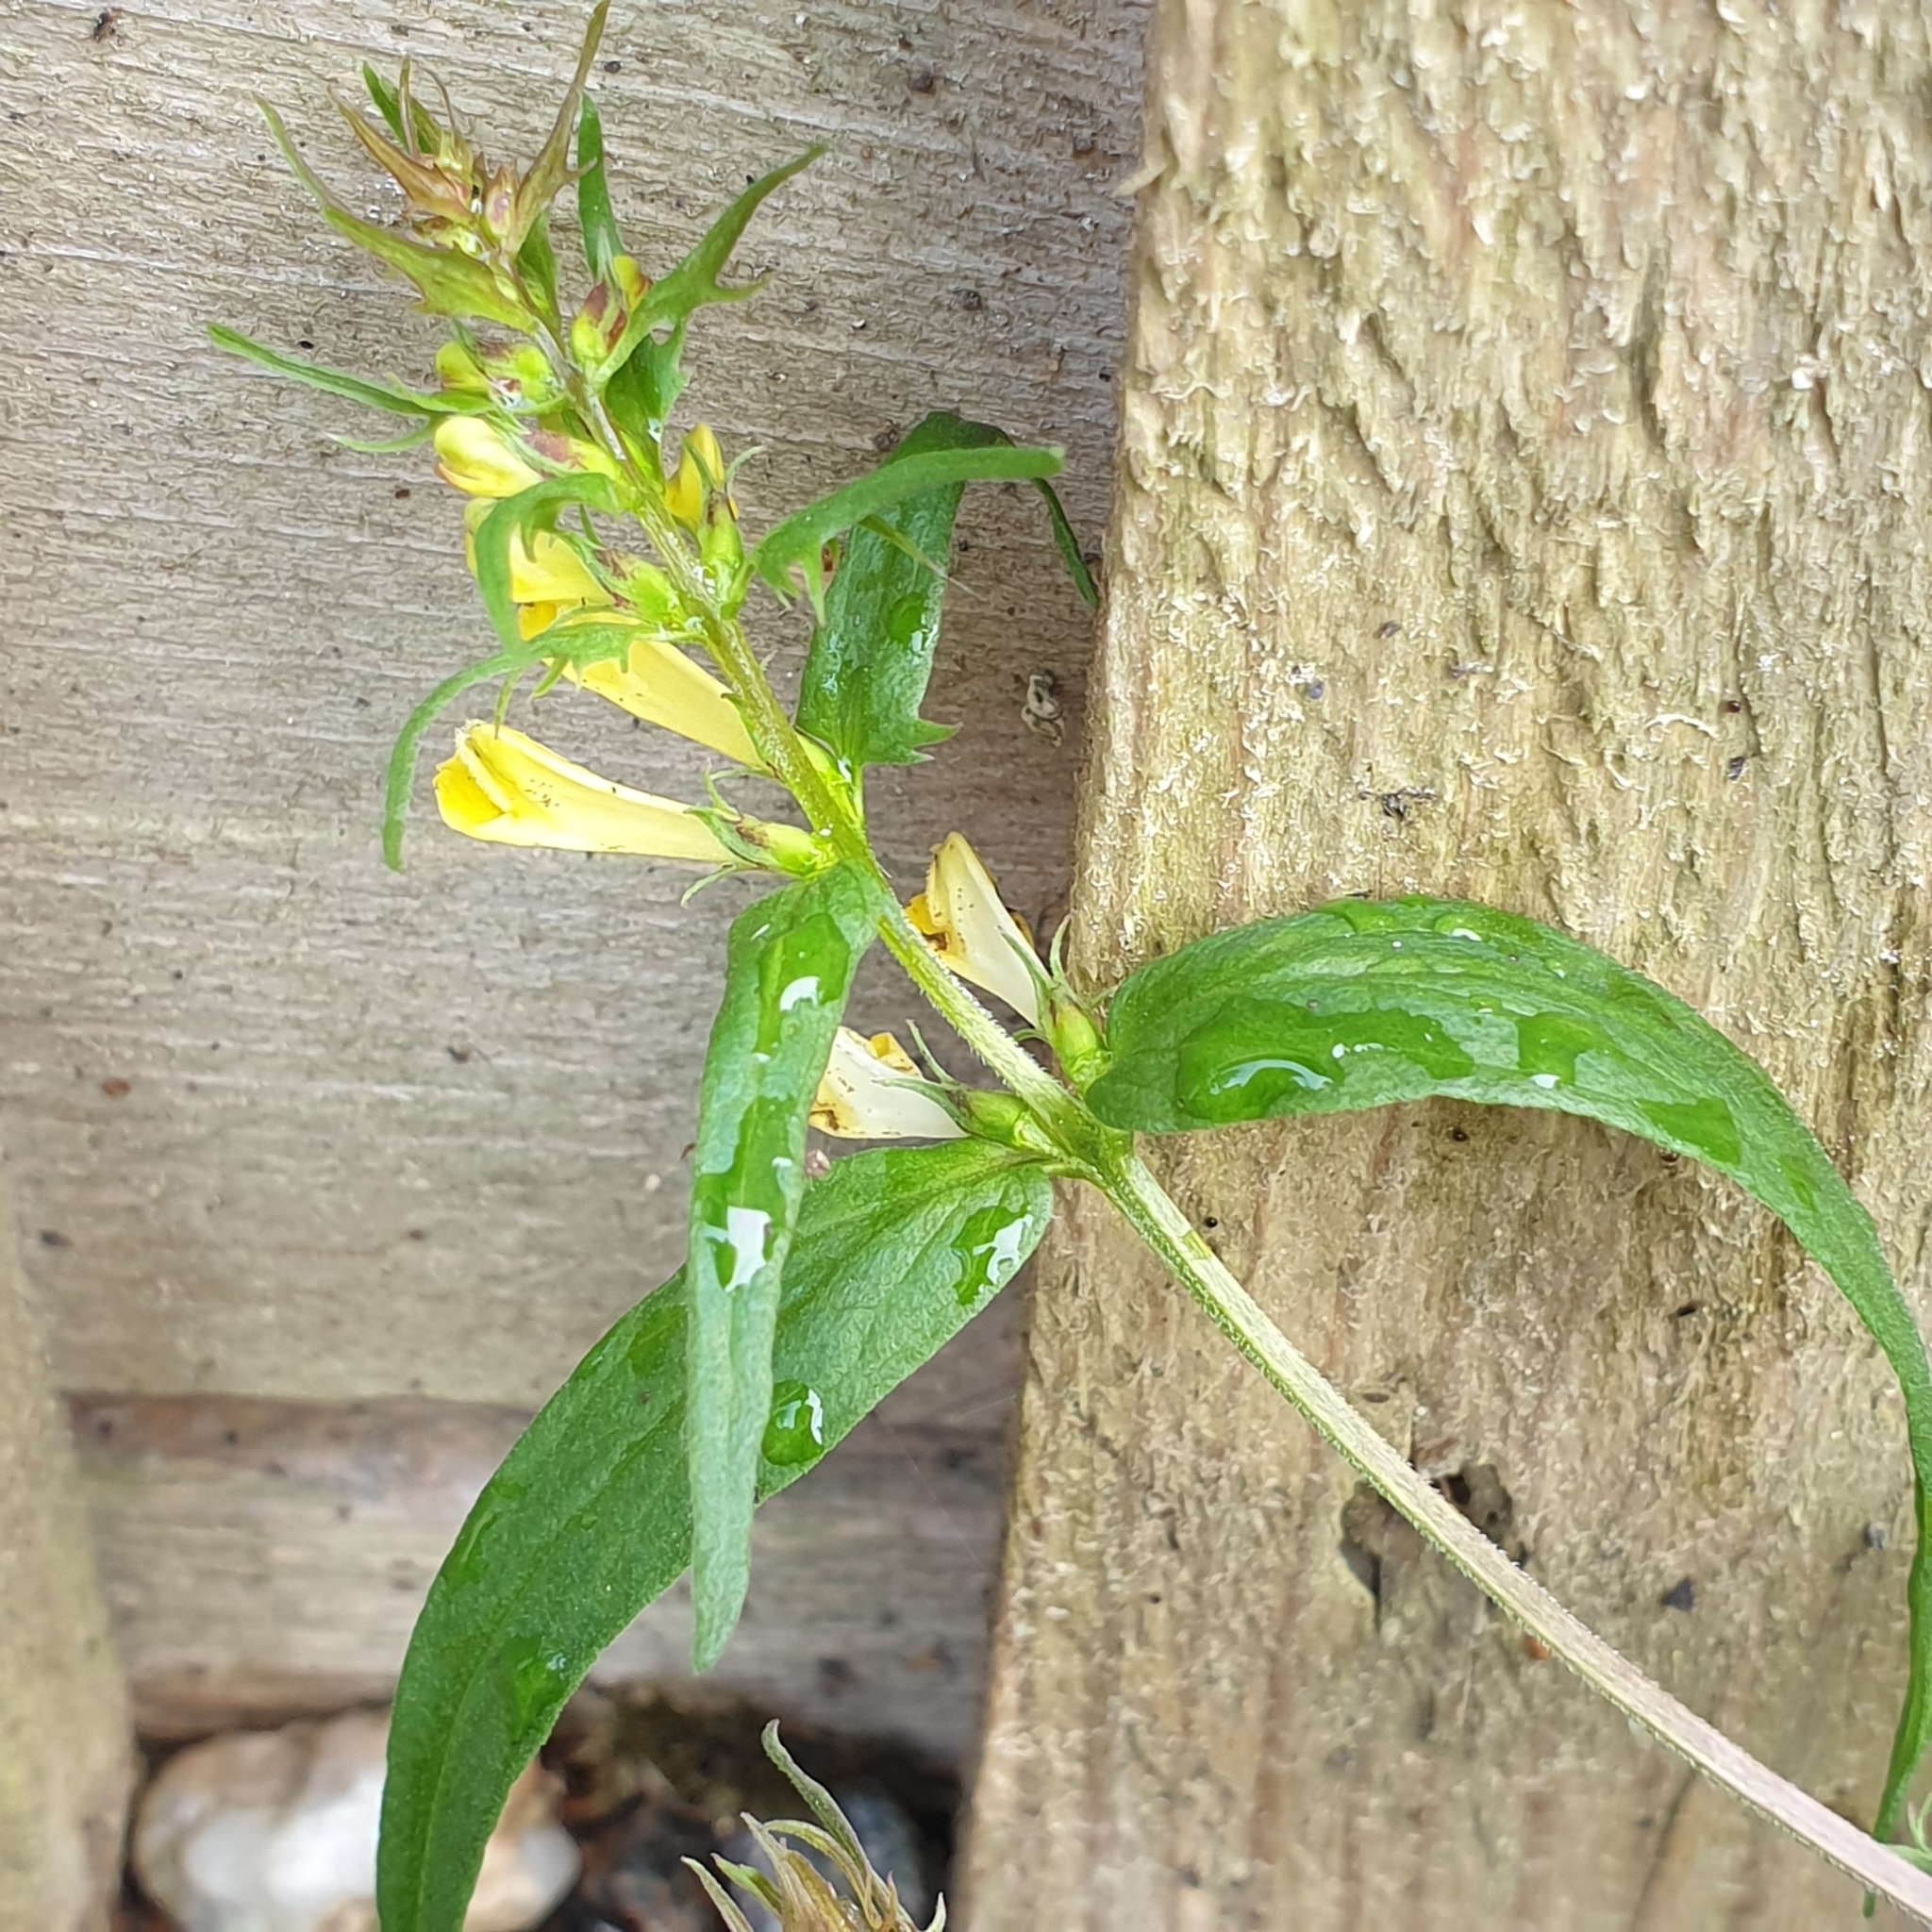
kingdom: Plantae
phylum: Tracheophyta
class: Magnoliopsida
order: Lamiales
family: Orobanchaceae
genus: Melampyrum
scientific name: Melampyrum pratense
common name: Common cow-wheat
